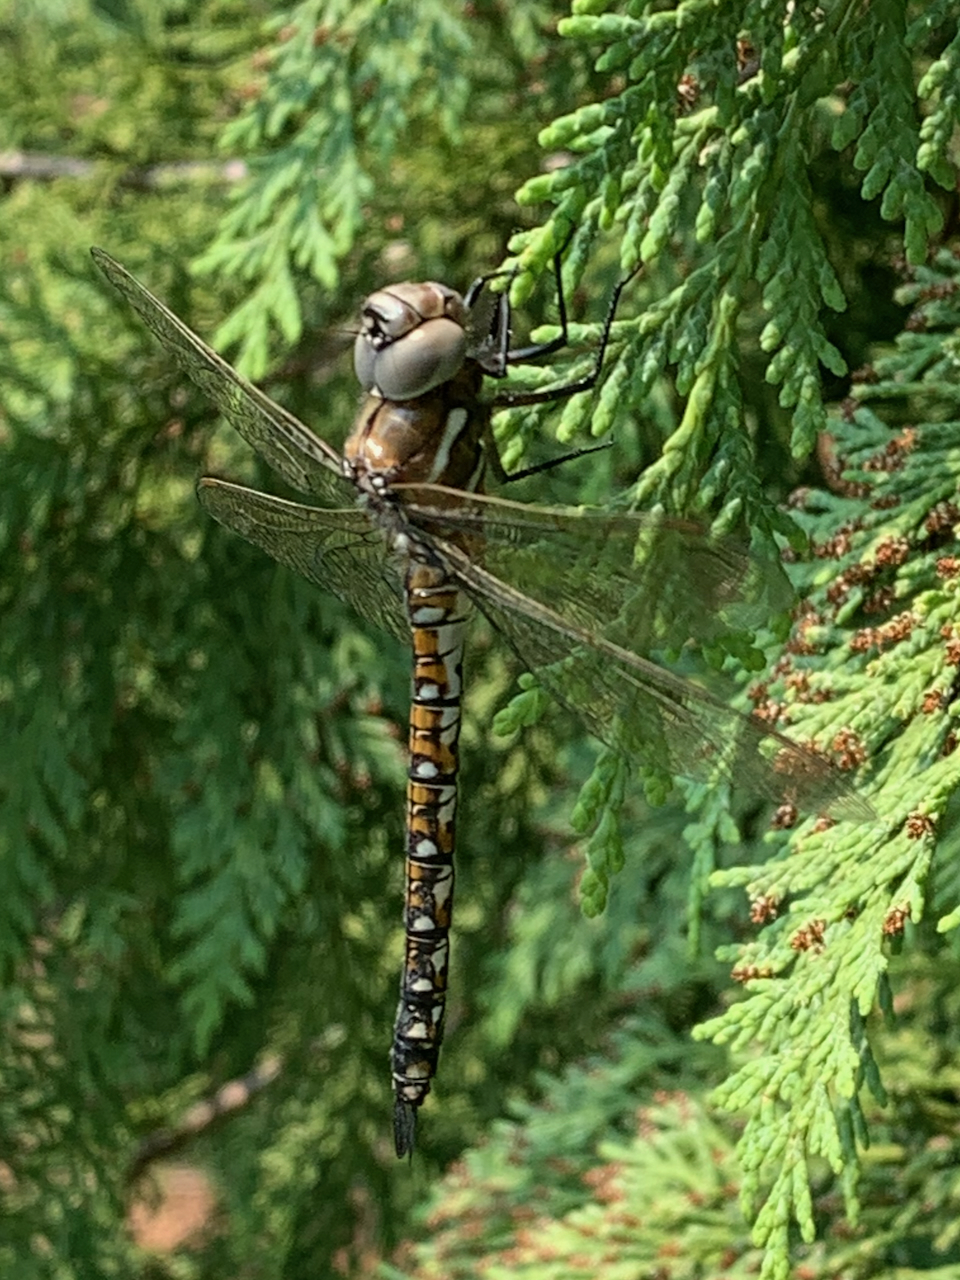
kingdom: Animalia
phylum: Arthropoda
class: Insecta
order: Odonata
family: Aeshnidae
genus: Rhionaeschna
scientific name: Rhionaeschna californica
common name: California darner
